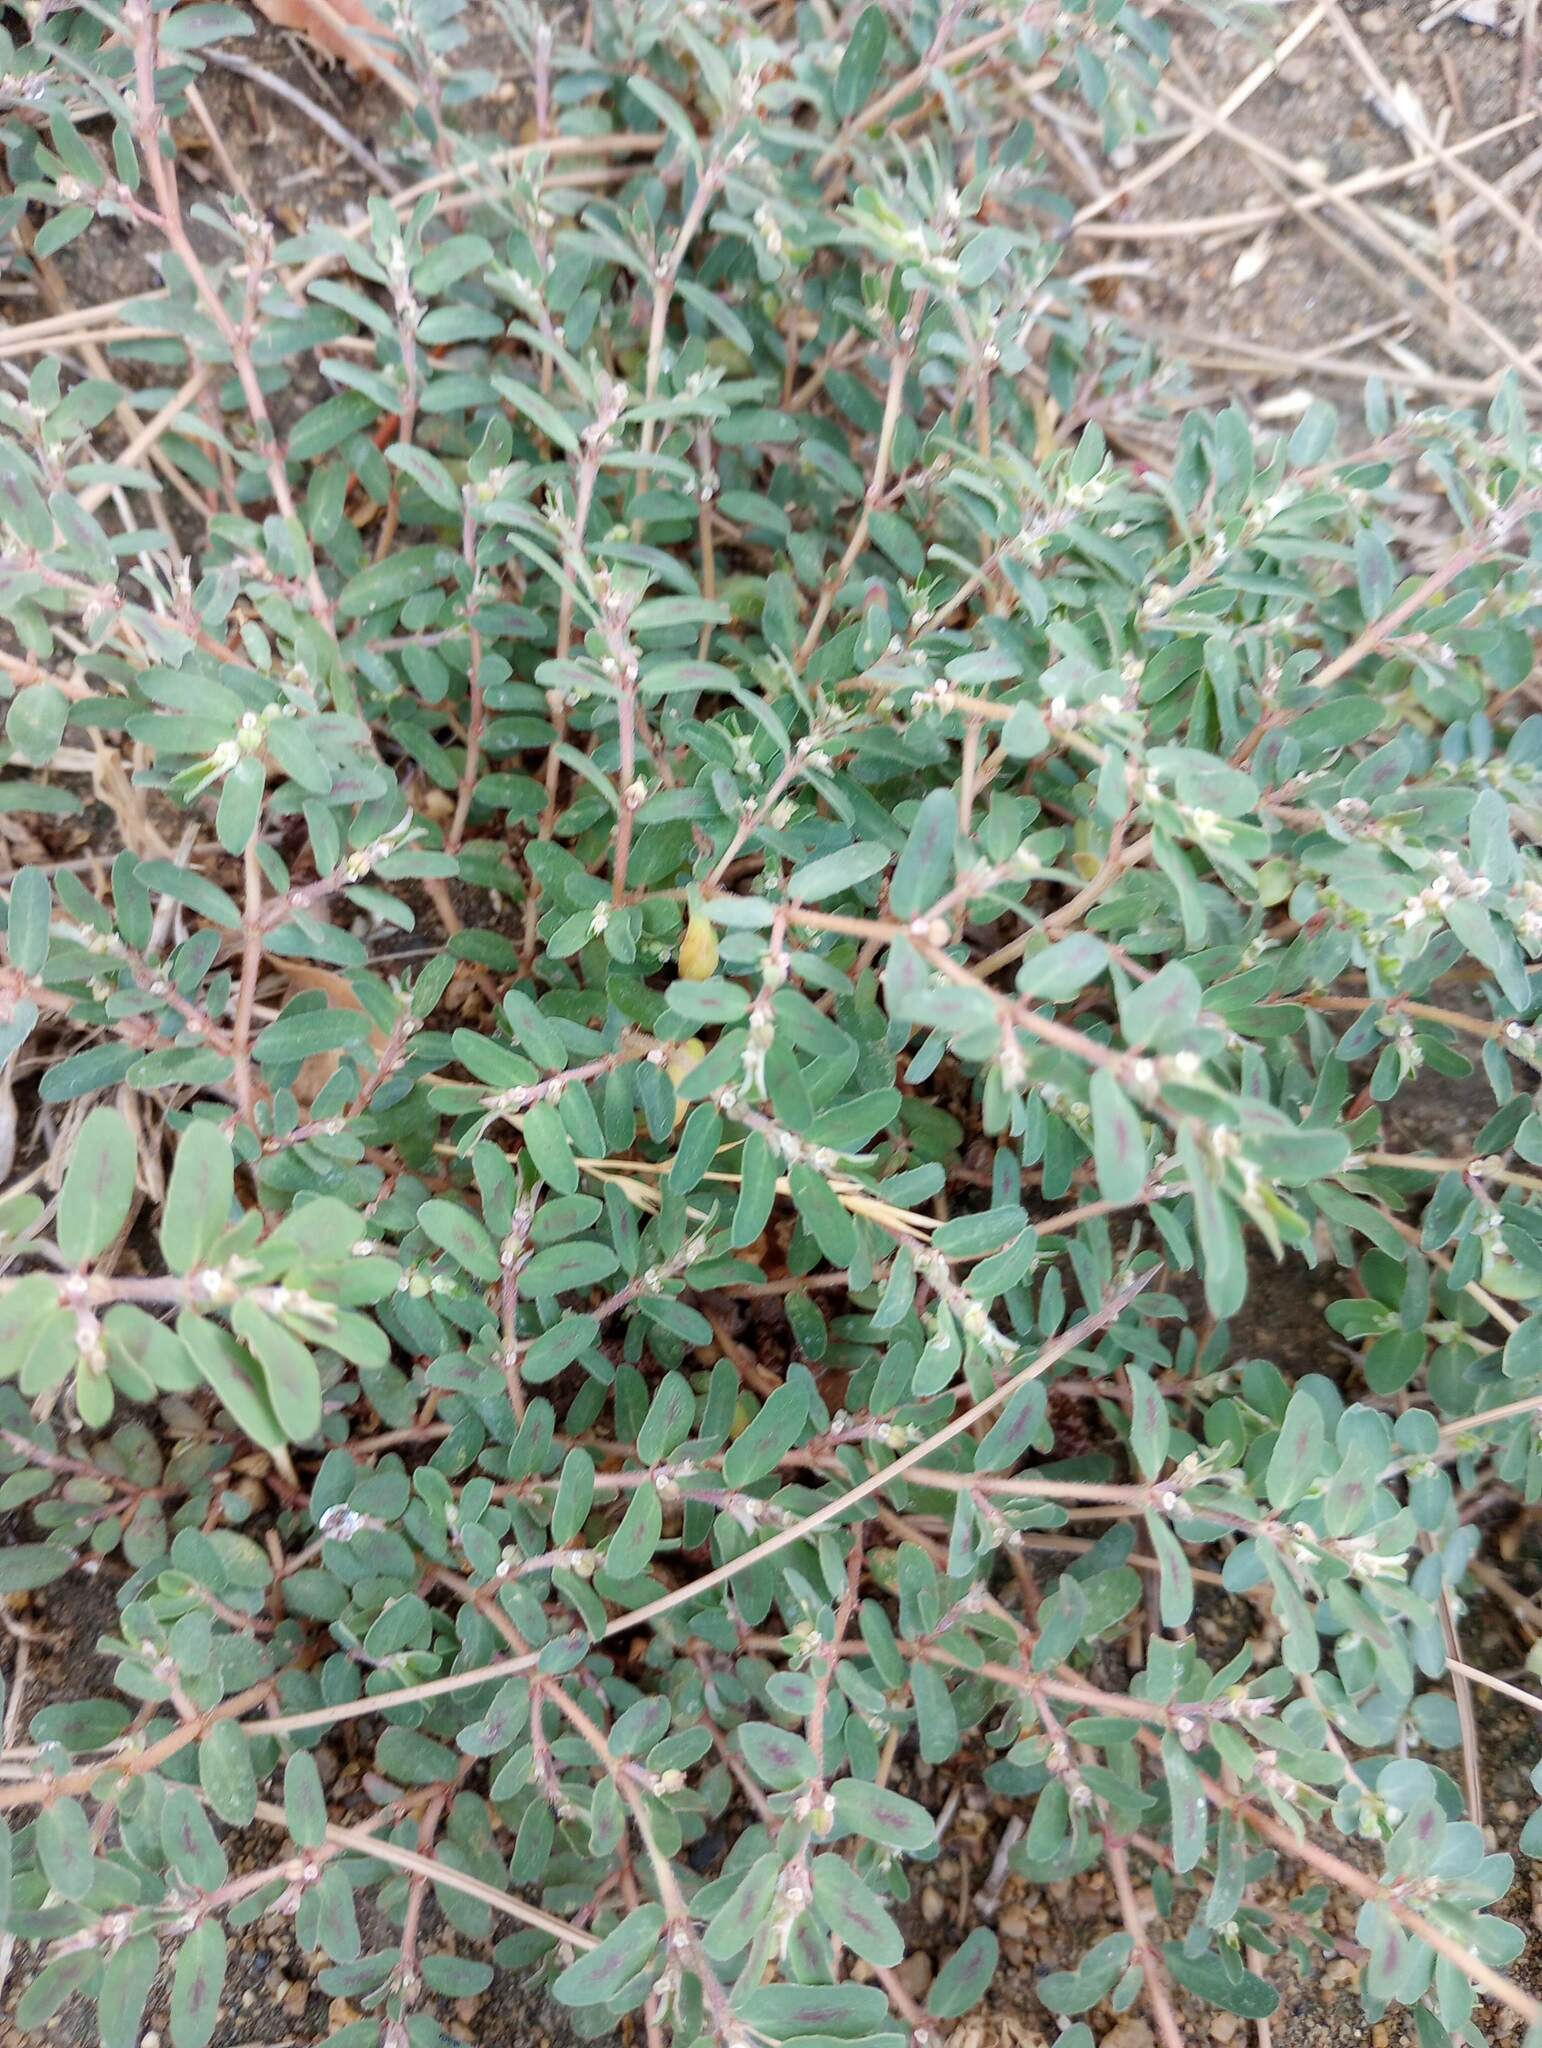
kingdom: Plantae
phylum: Tracheophyta
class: Magnoliopsida
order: Malpighiales
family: Euphorbiaceae
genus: Euphorbia
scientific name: Euphorbia maculata
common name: Spotted spurge
